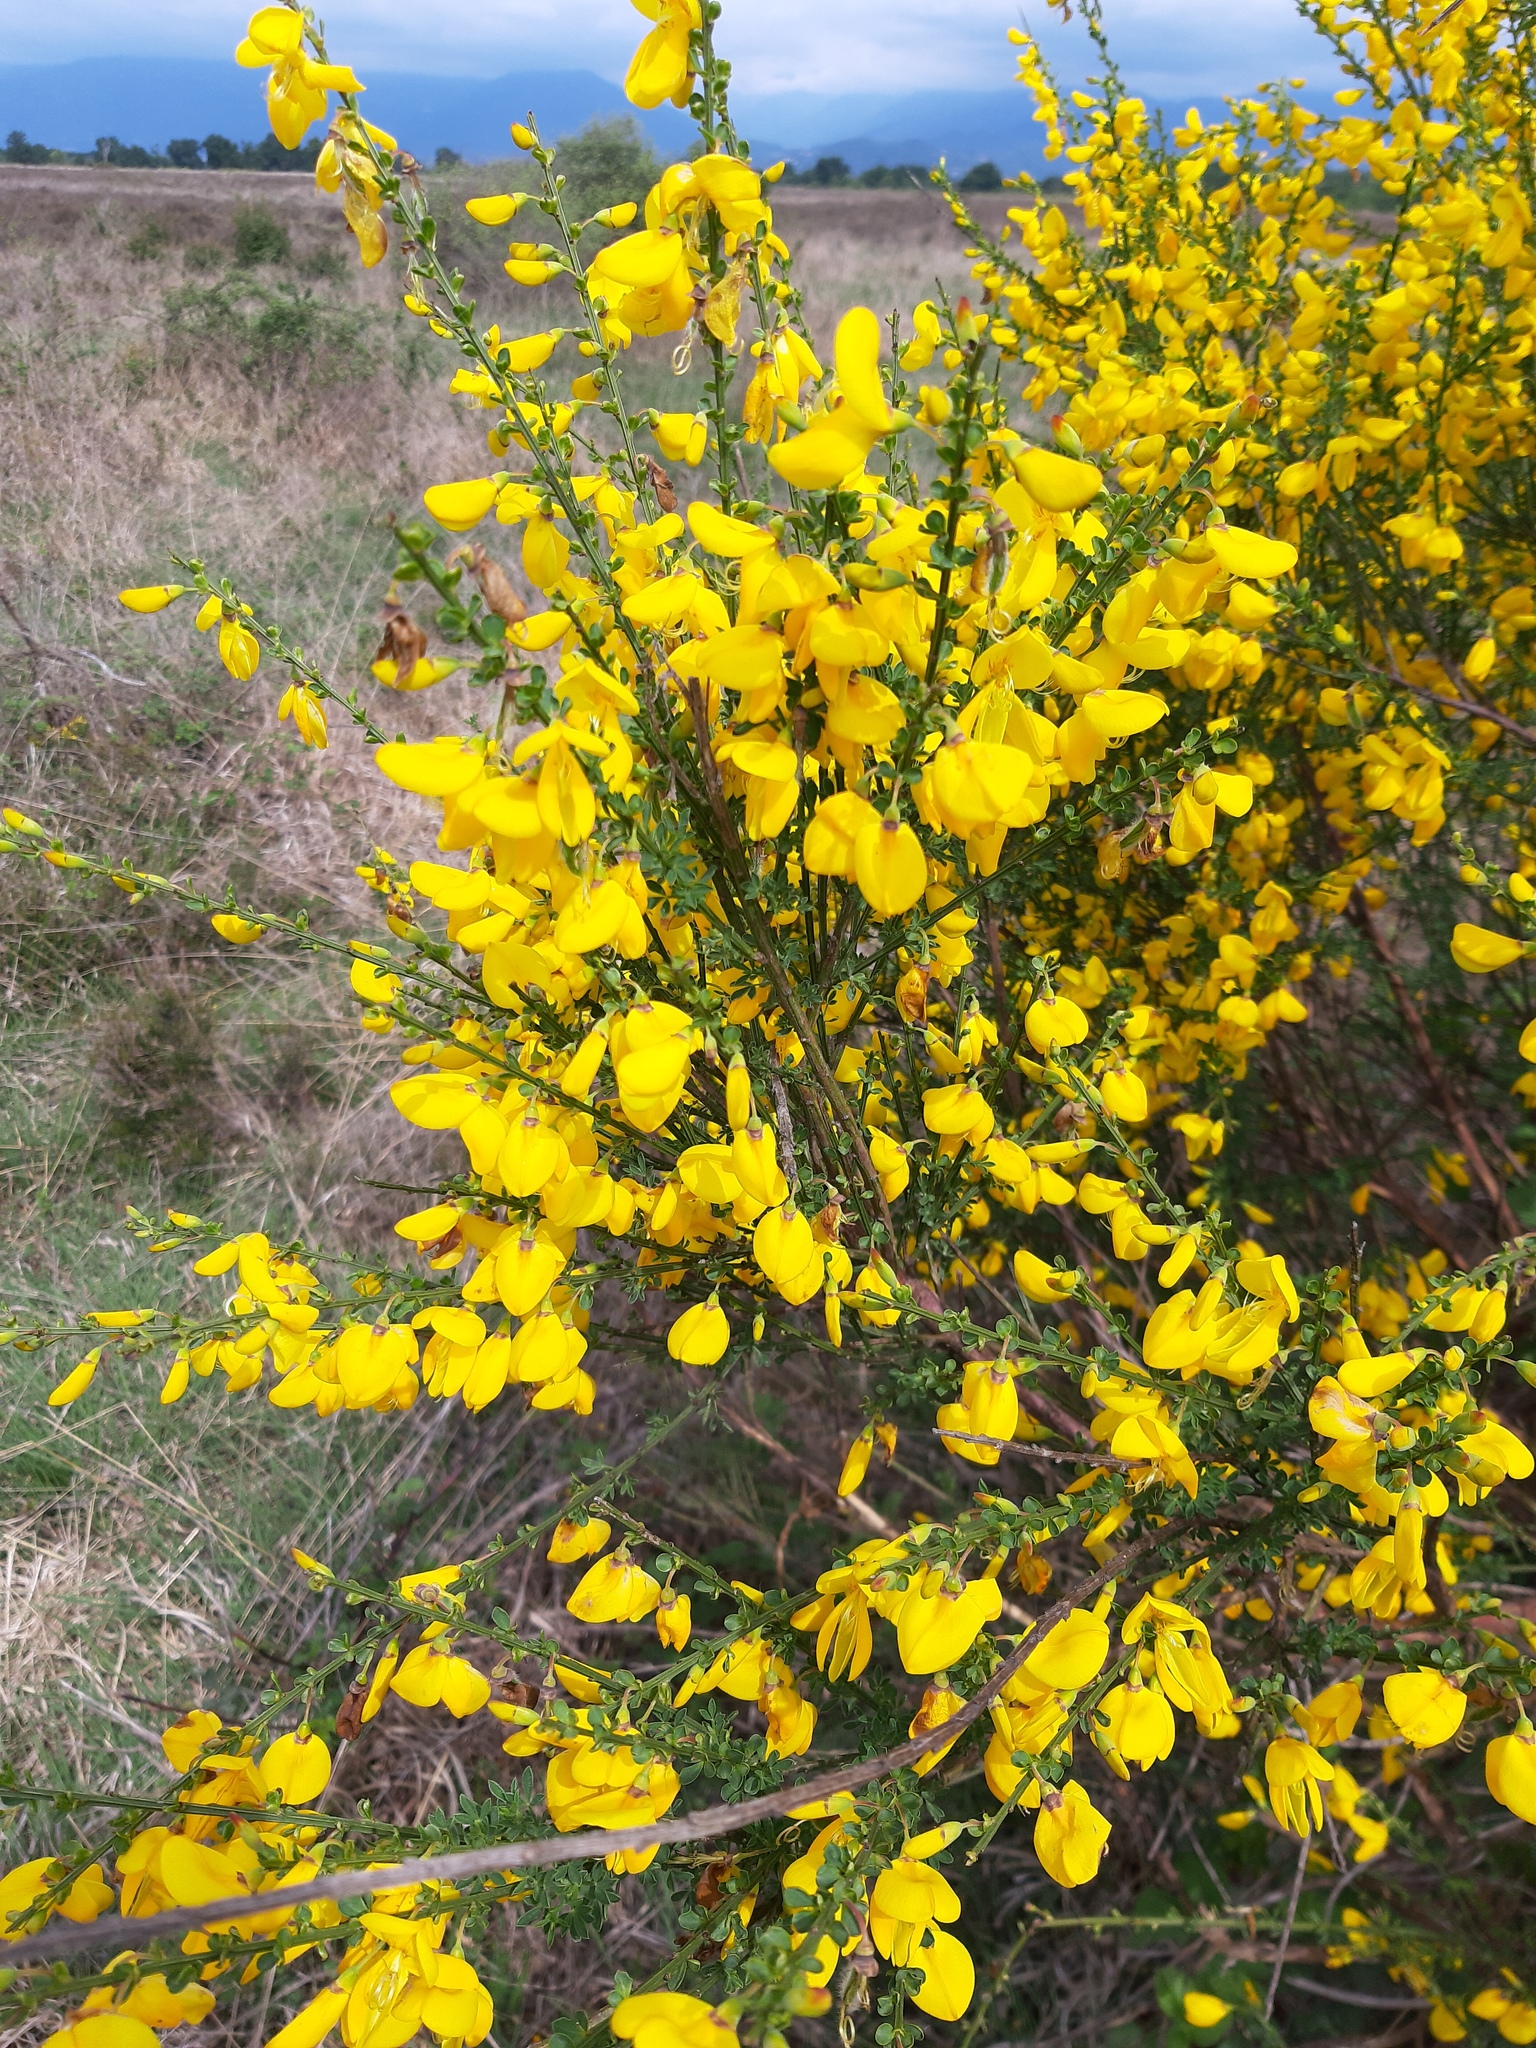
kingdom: Plantae
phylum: Tracheophyta
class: Magnoliopsida
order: Fabales
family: Fabaceae
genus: Cytisus
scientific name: Cytisus scoparius
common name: Scotch broom
